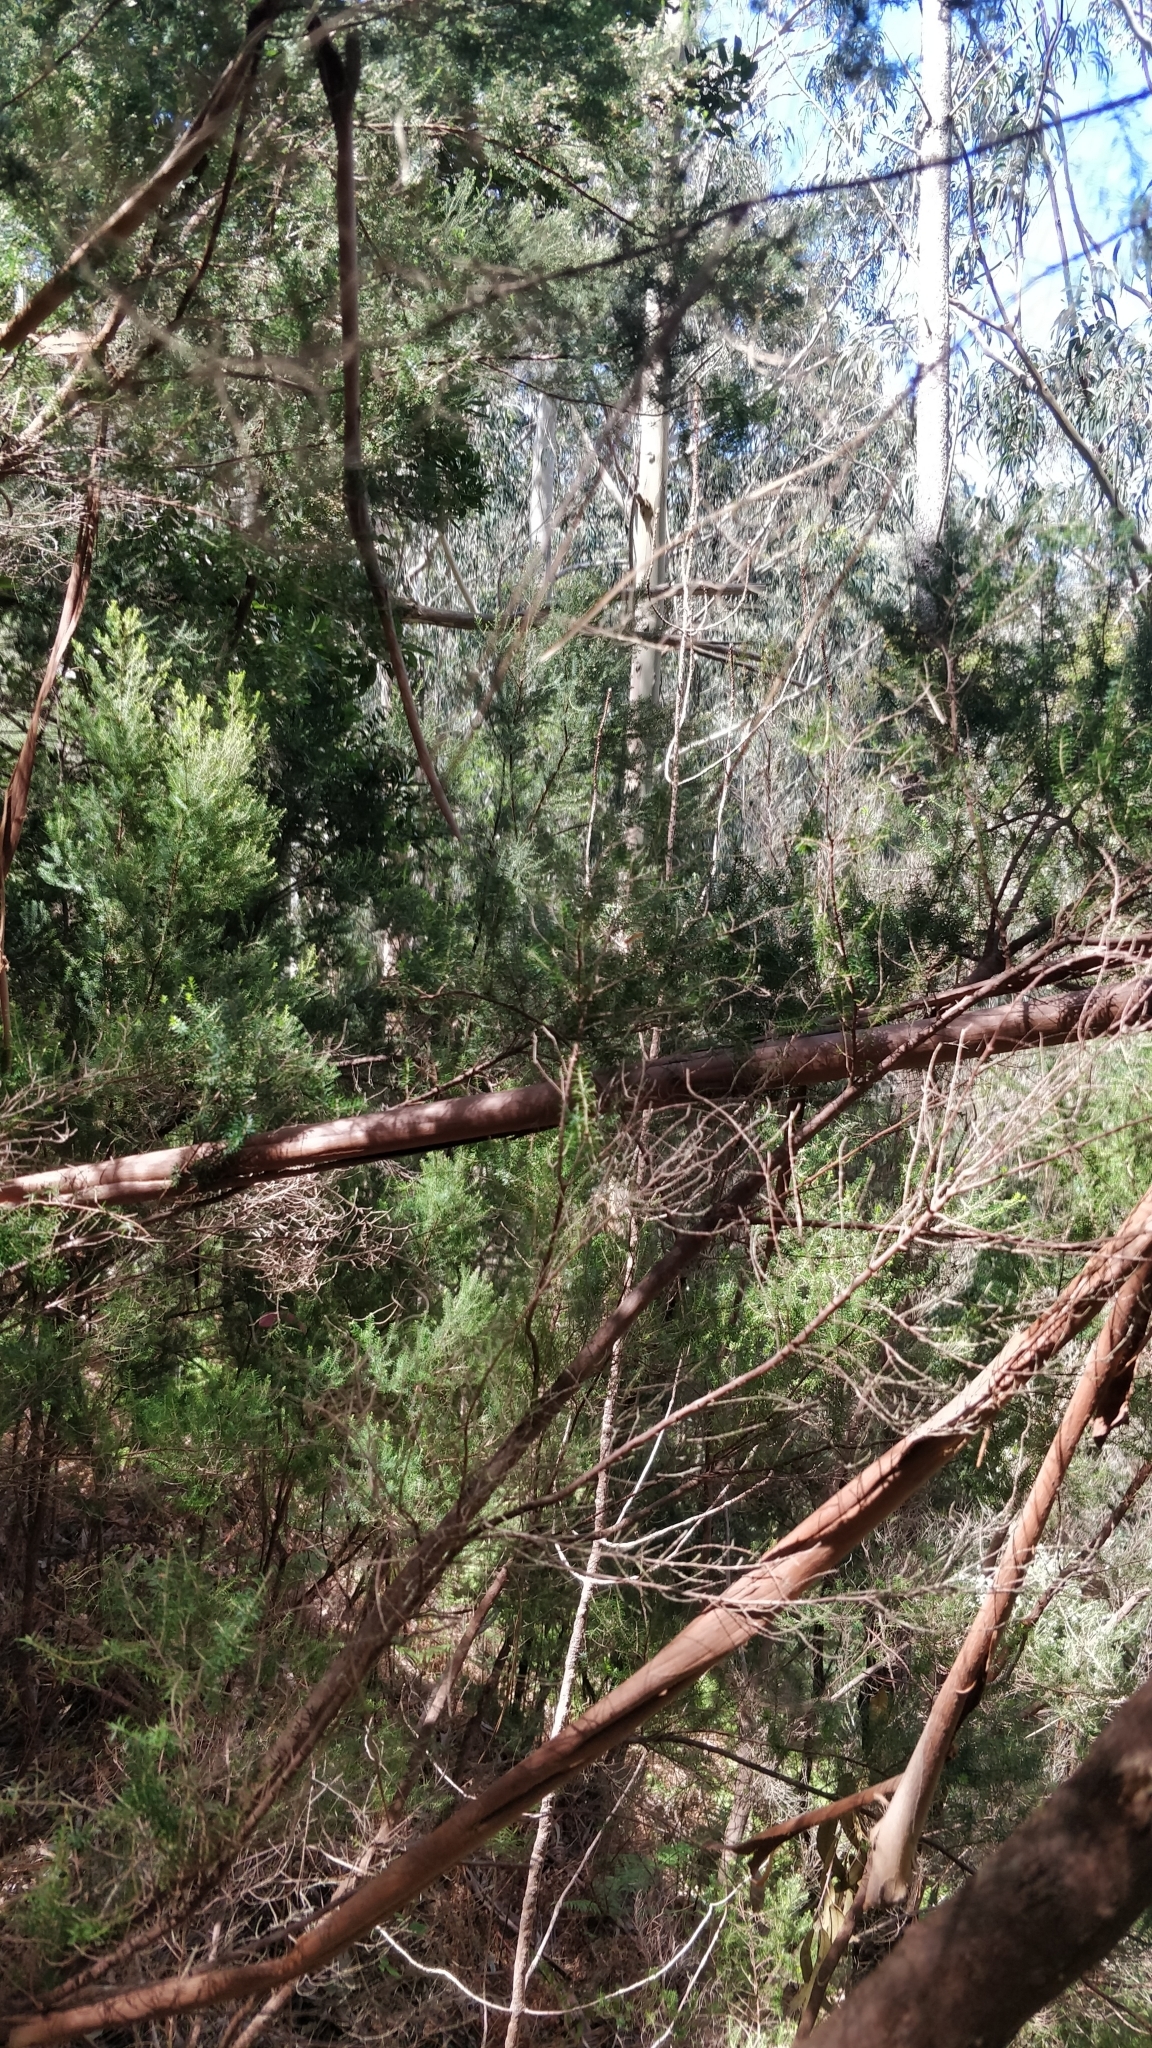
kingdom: Plantae
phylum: Tracheophyta
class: Magnoliopsida
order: Ericales
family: Ericaceae
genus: Erica
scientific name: Erica platycodon
